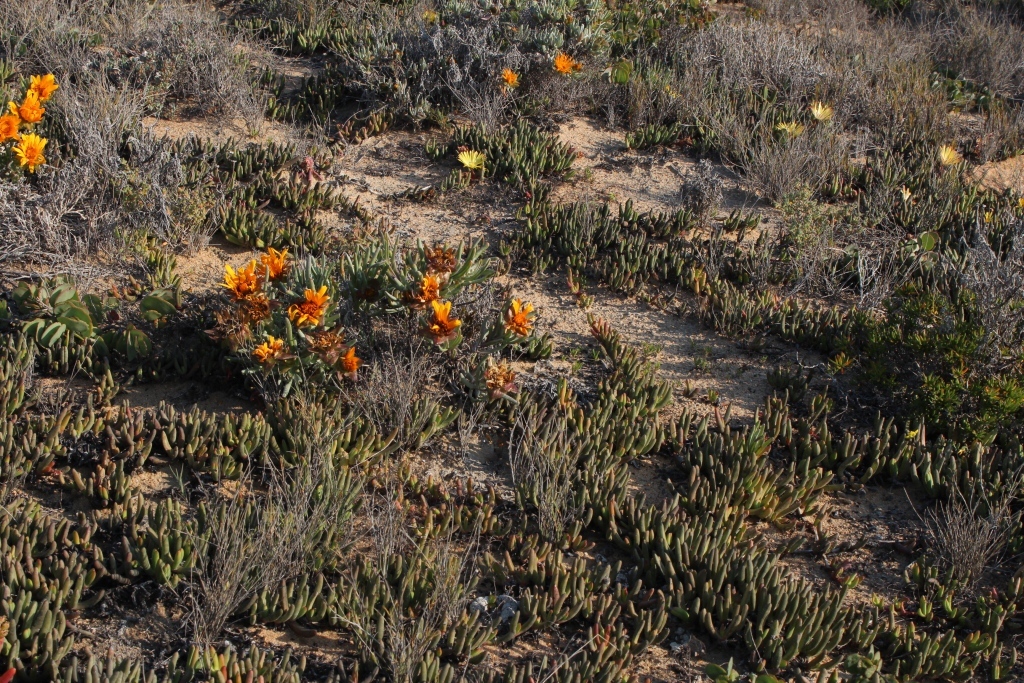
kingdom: Plantae
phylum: Tracheophyta
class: Magnoliopsida
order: Caryophyllales
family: Aizoaceae
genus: Cephalophyllum
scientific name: Cephalophyllum inaequale
